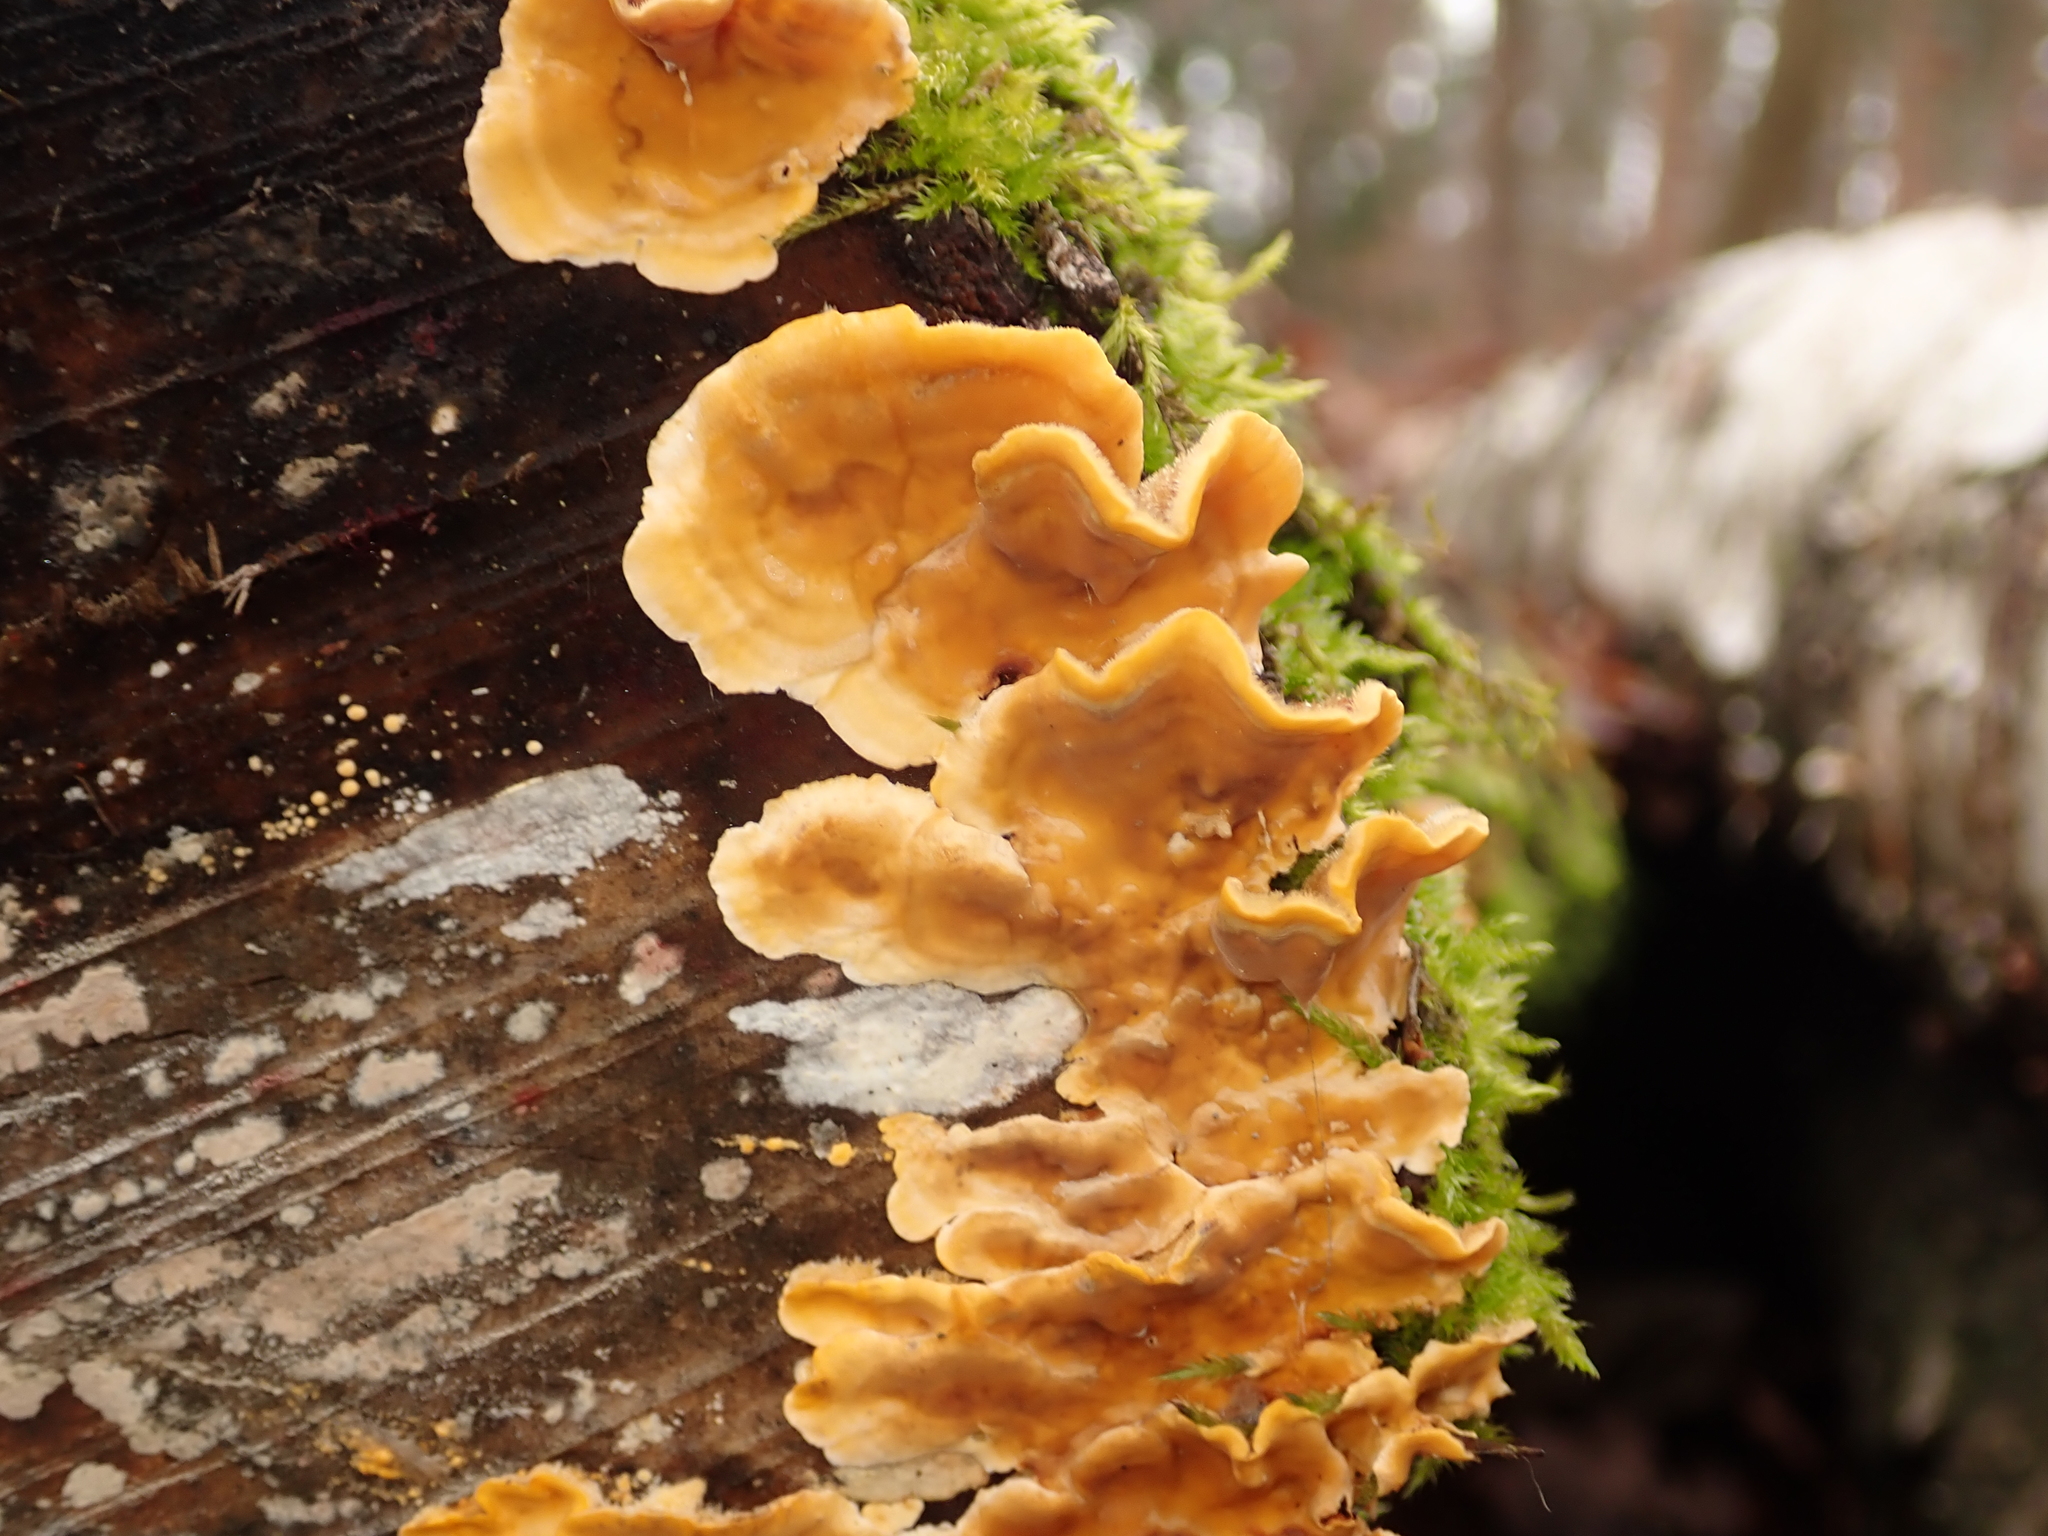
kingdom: Fungi
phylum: Basidiomycota
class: Agaricomycetes
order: Russulales
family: Stereaceae
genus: Stereum
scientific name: Stereum hirsutum
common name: Hairy curtain crust
